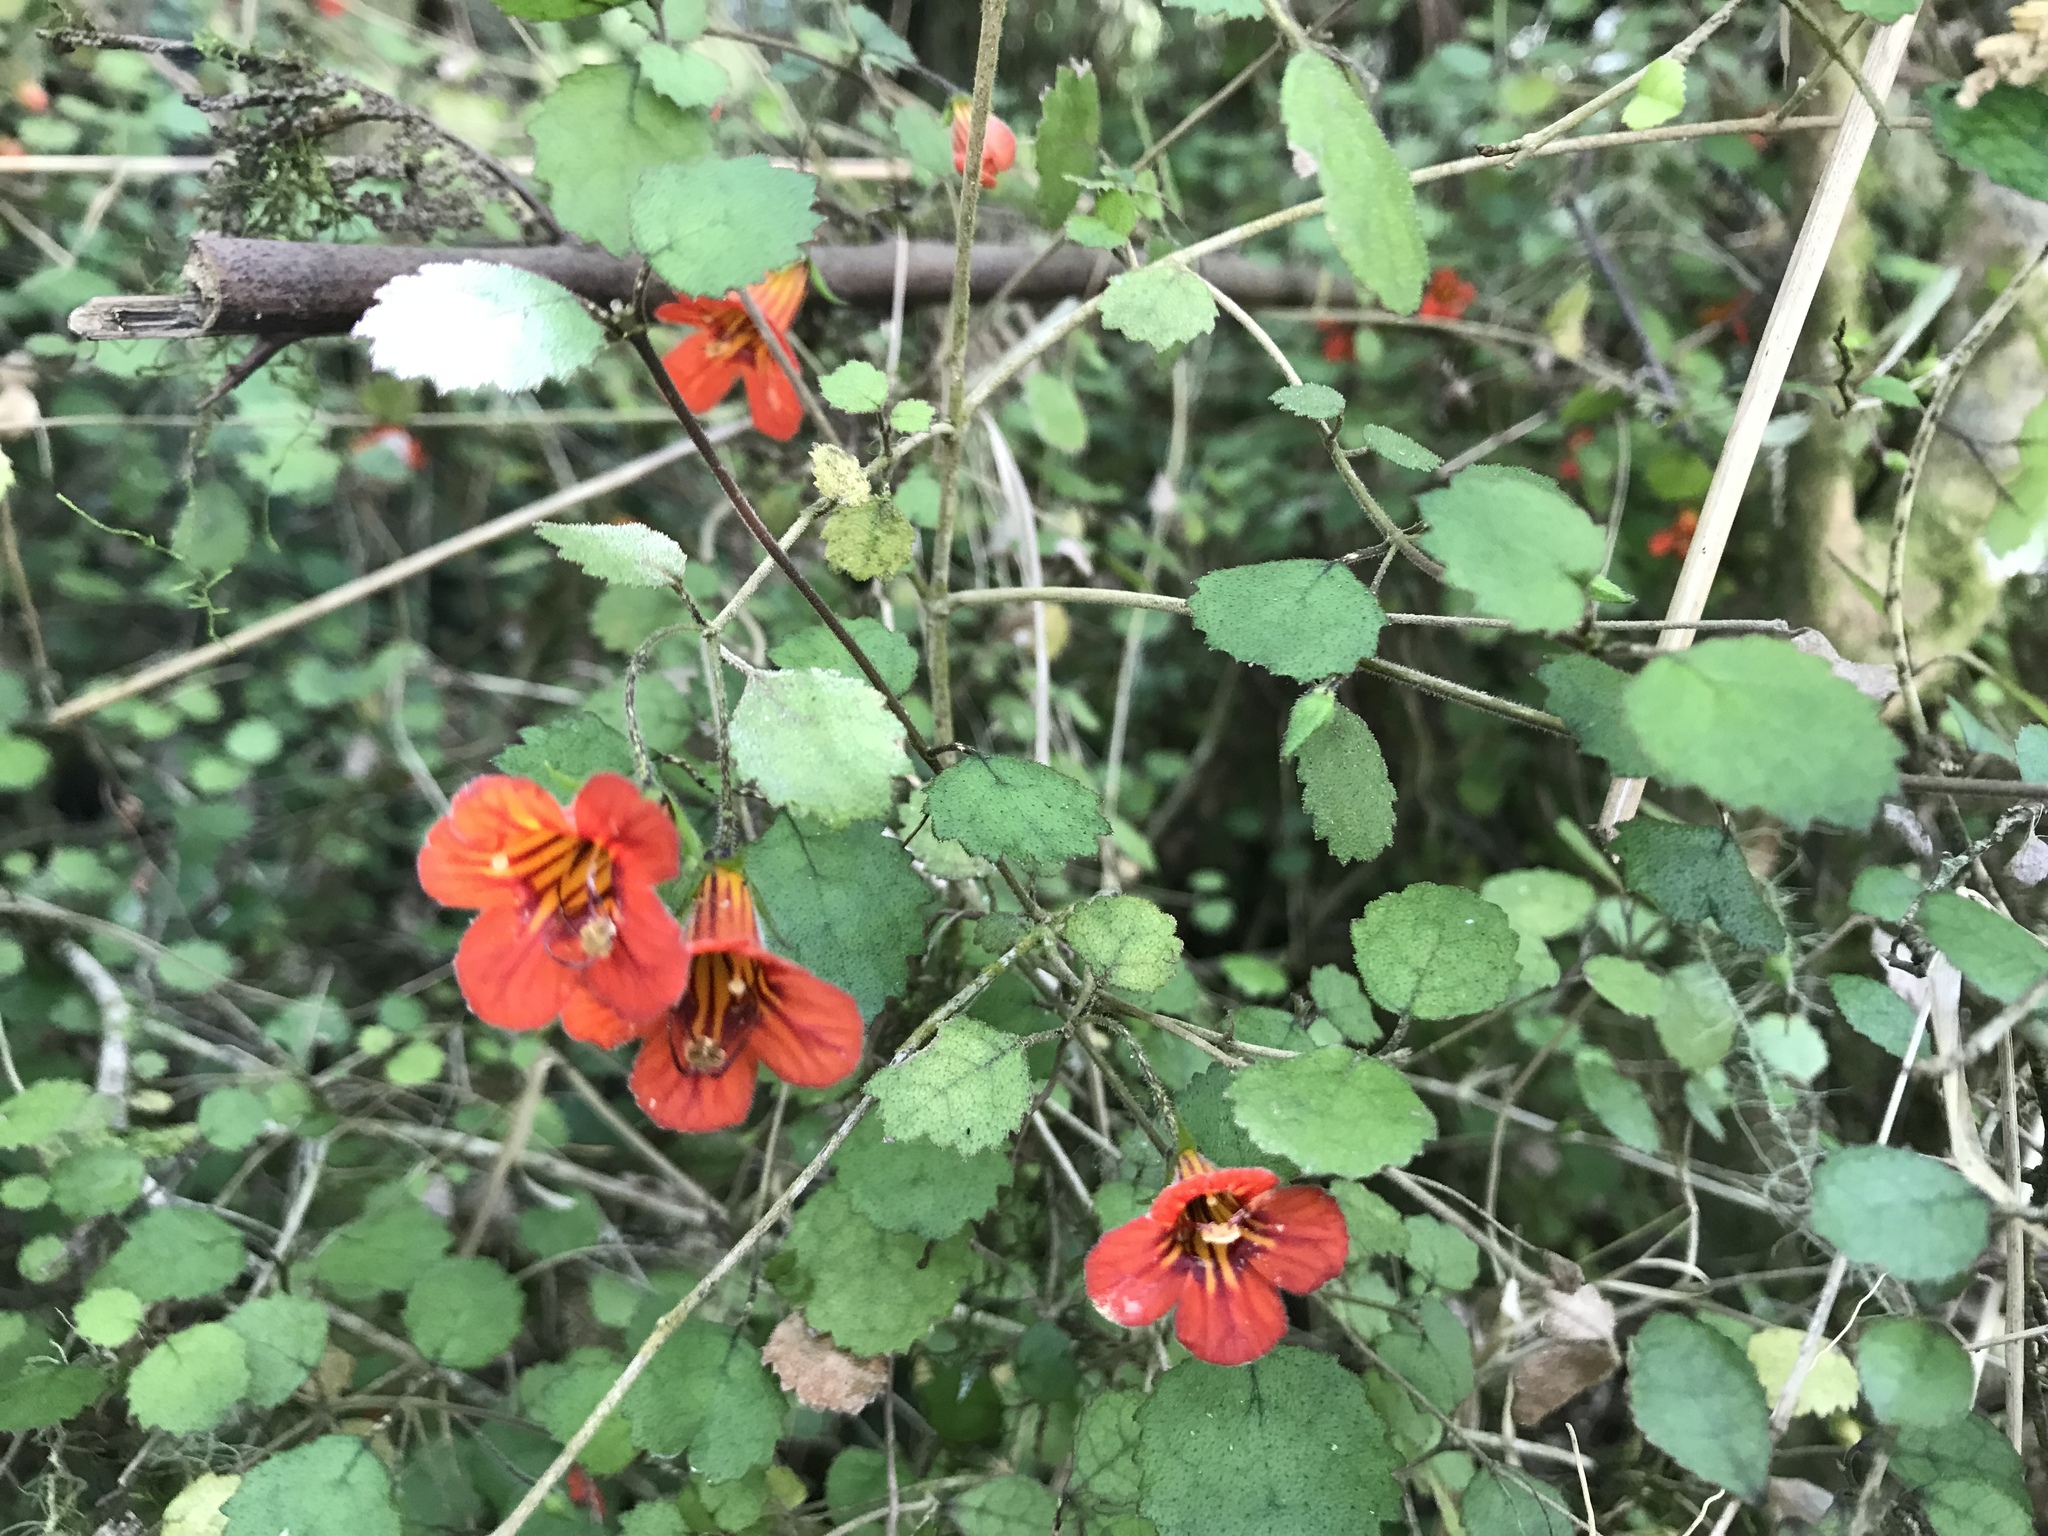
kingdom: Plantae
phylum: Tracheophyta
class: Magnoliopsida
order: Lamiales
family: Gesneriaceae
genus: Rhabdothamnus
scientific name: Rhabdothamnus solandri
